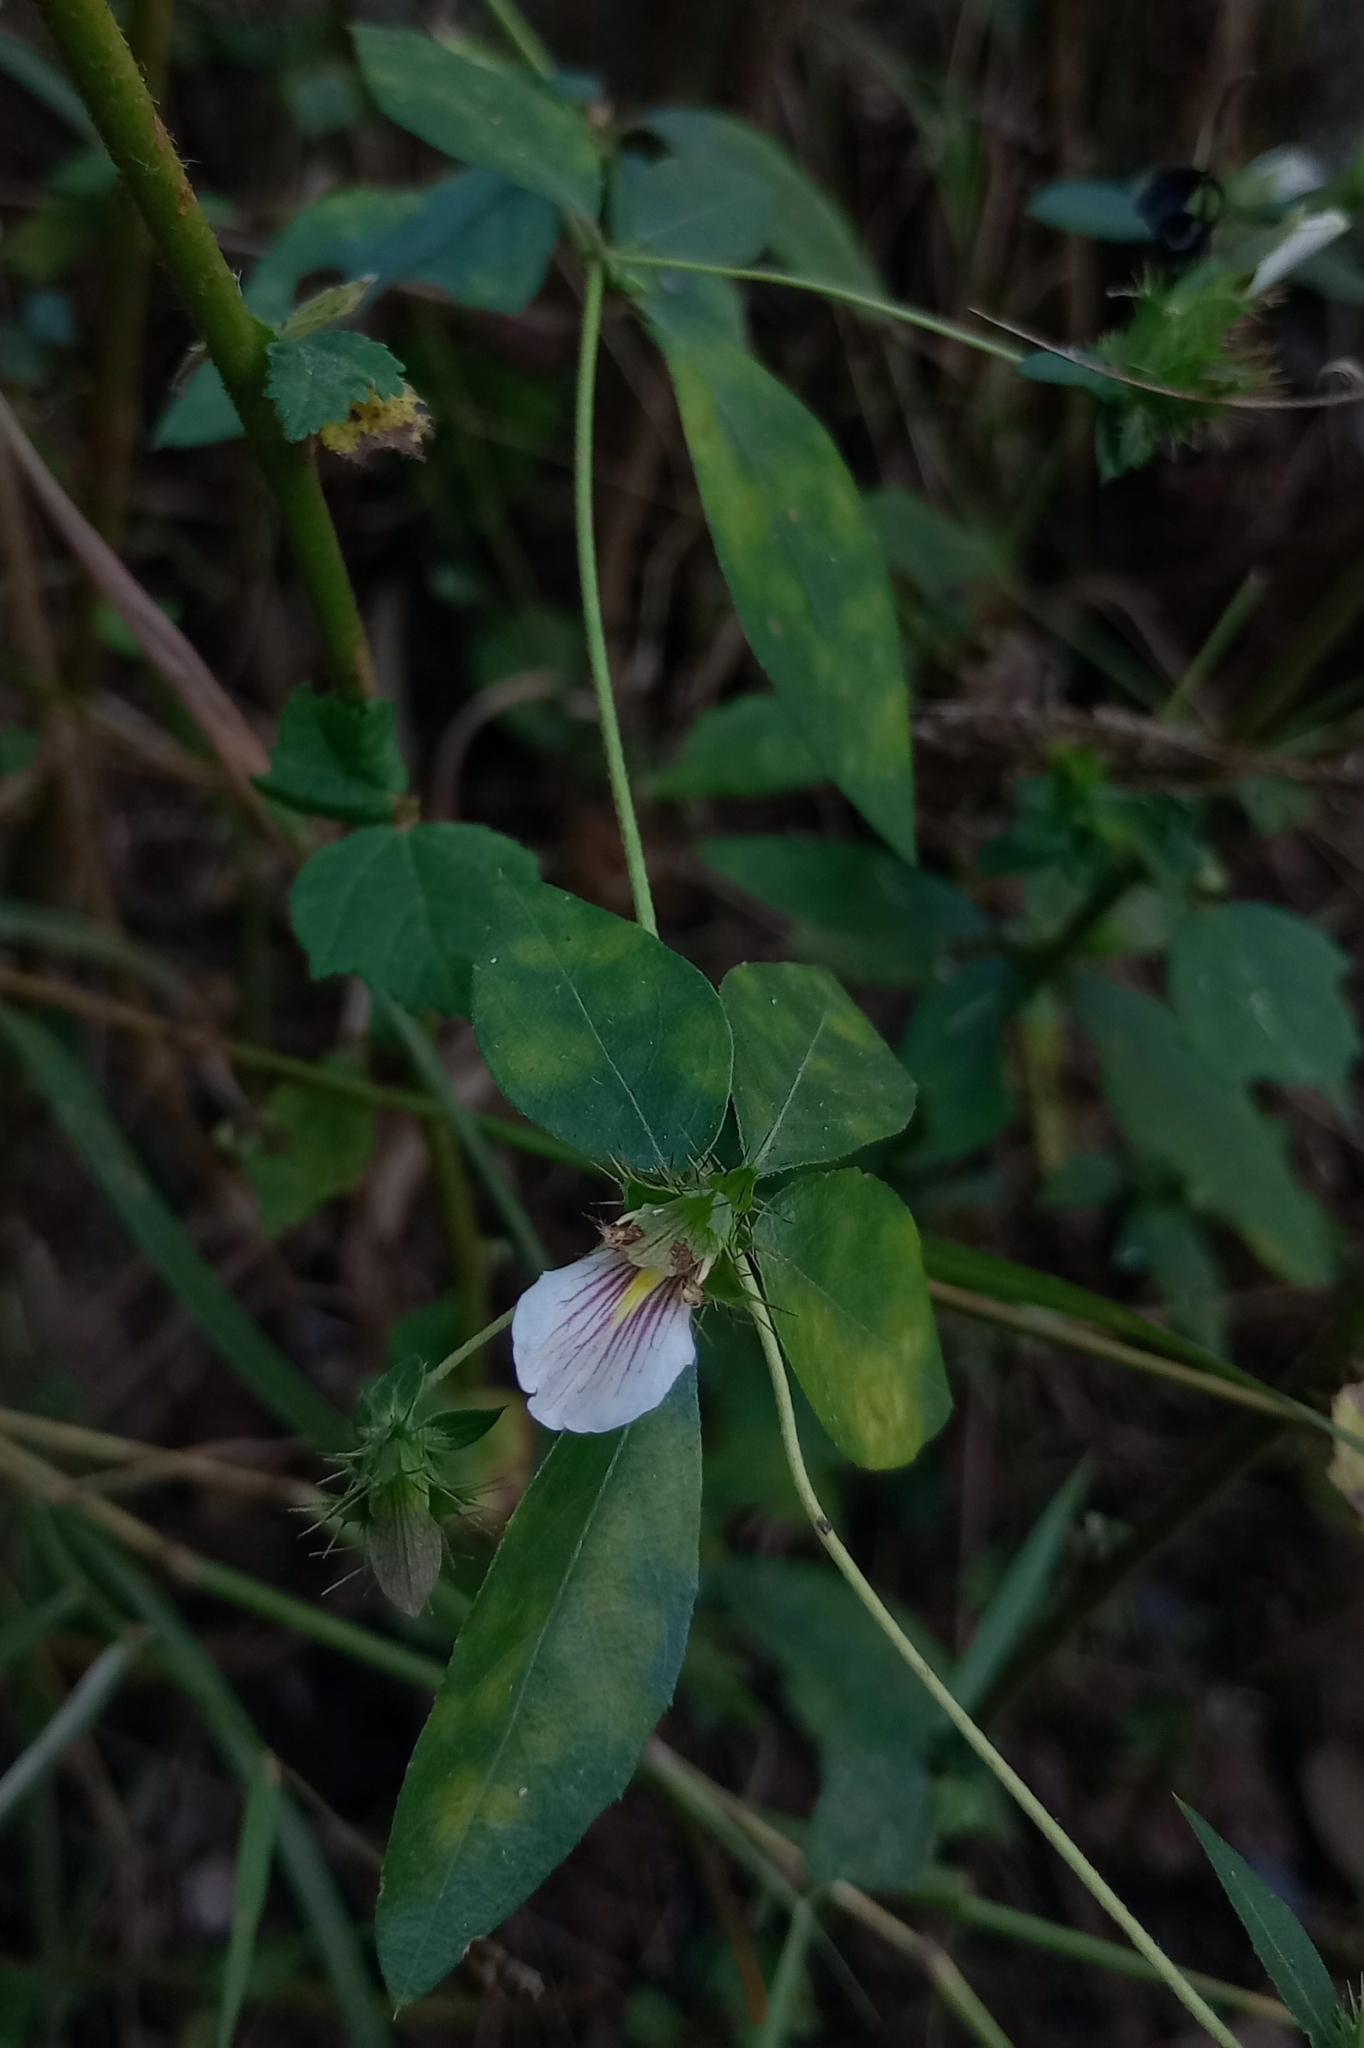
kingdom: Plantae
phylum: Tracheophyta
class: Magnoliopsida
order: Lamiales
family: Acanthaceae
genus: Blepharis
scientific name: Blepharis maderaspatensis
